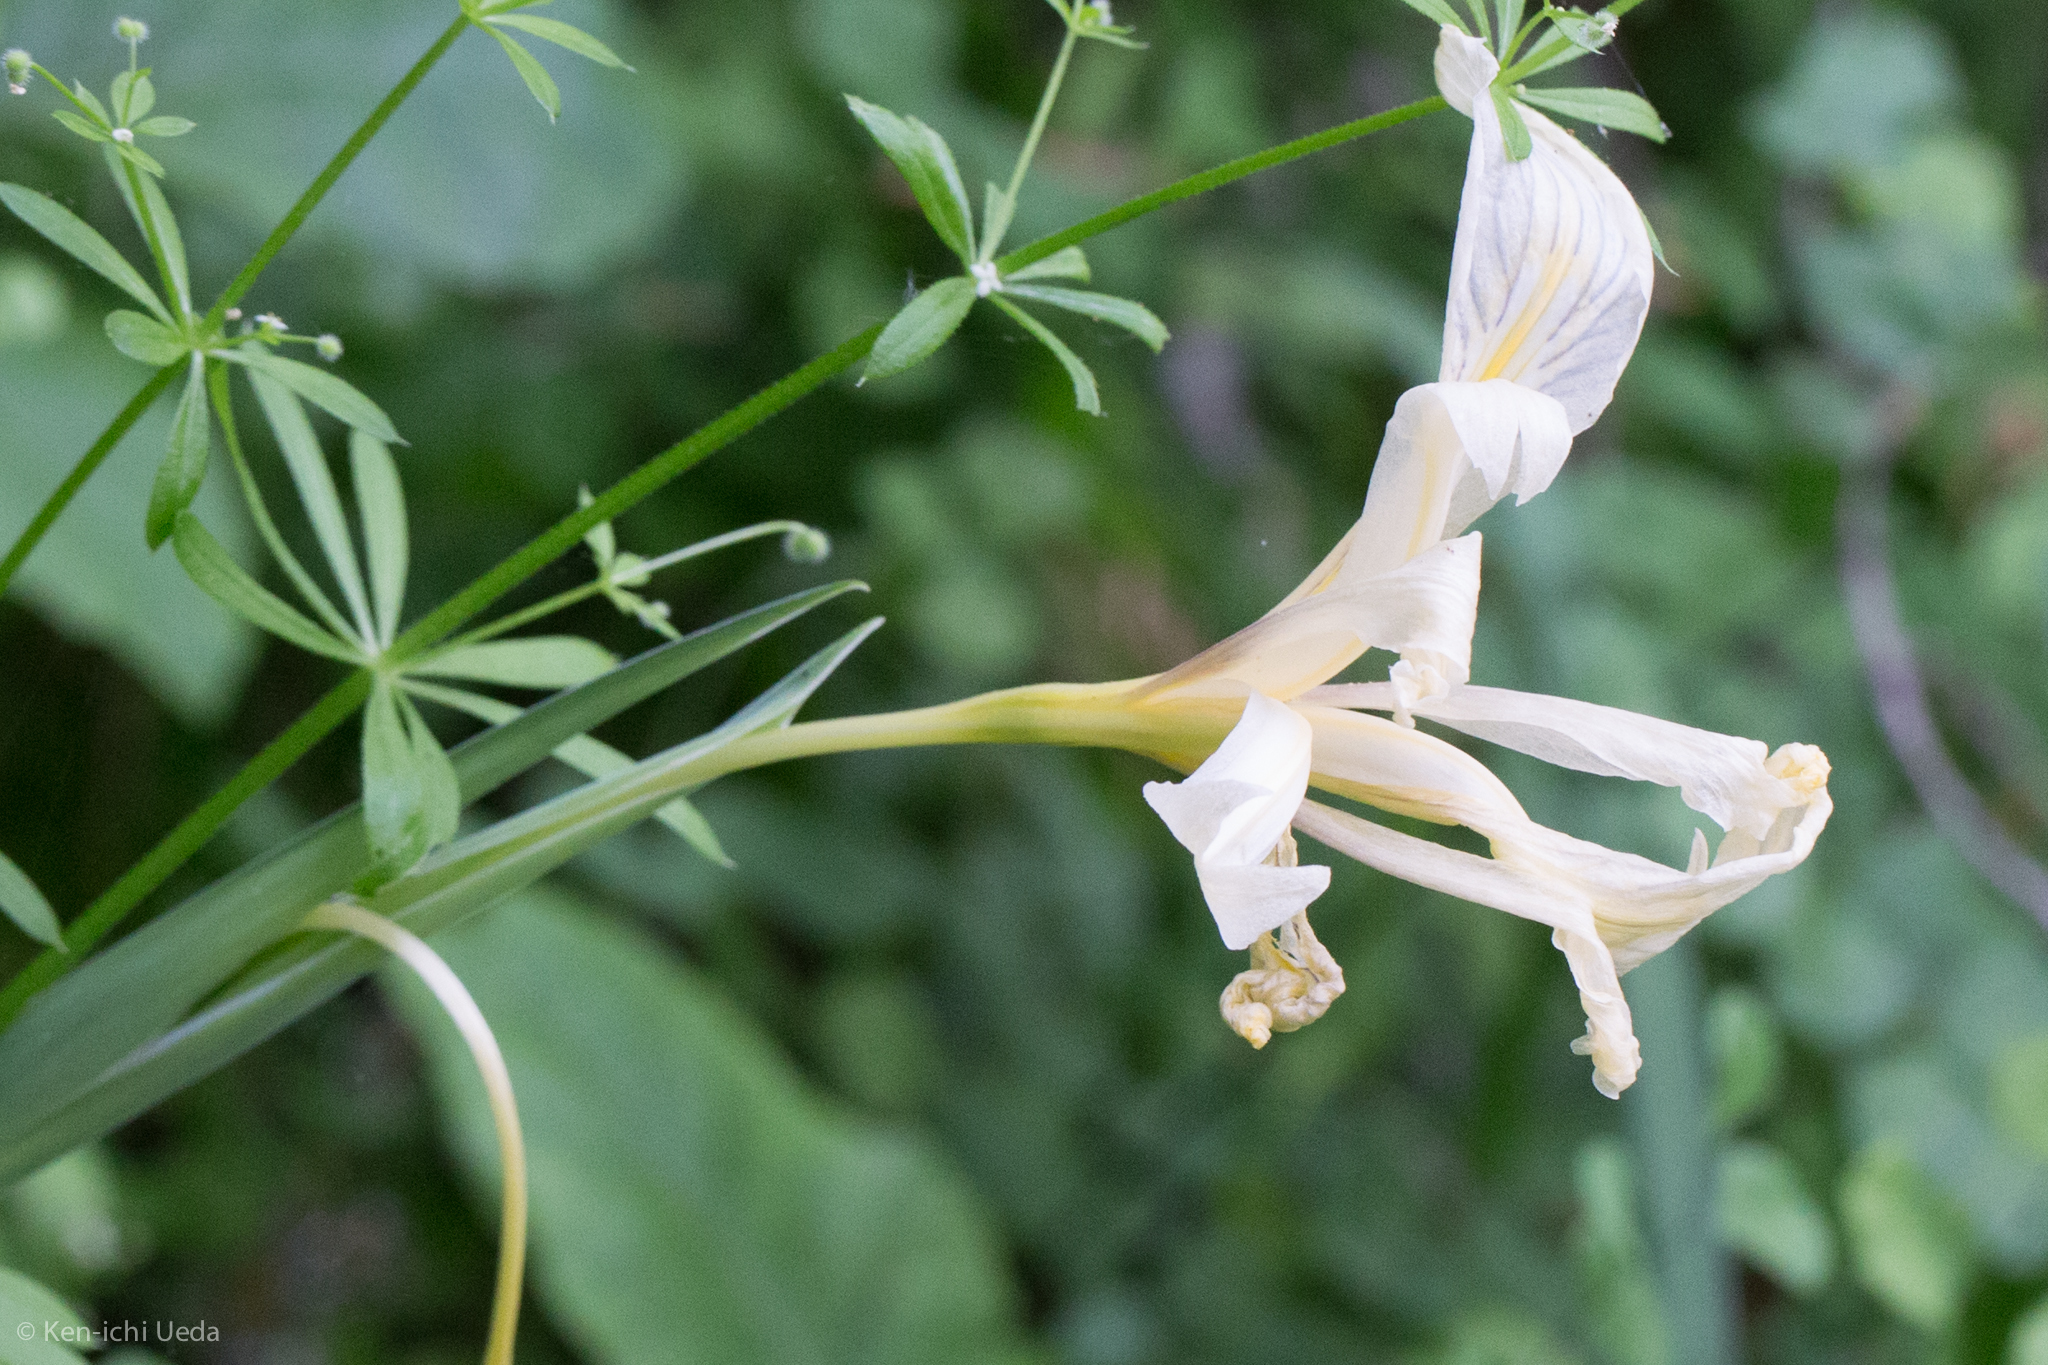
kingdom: Plantae
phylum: Tracheophyta
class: Liliopsida
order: Asparagales
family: Iridaceae
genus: Iris
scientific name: Iris fernaldii
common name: Fernald's iris
